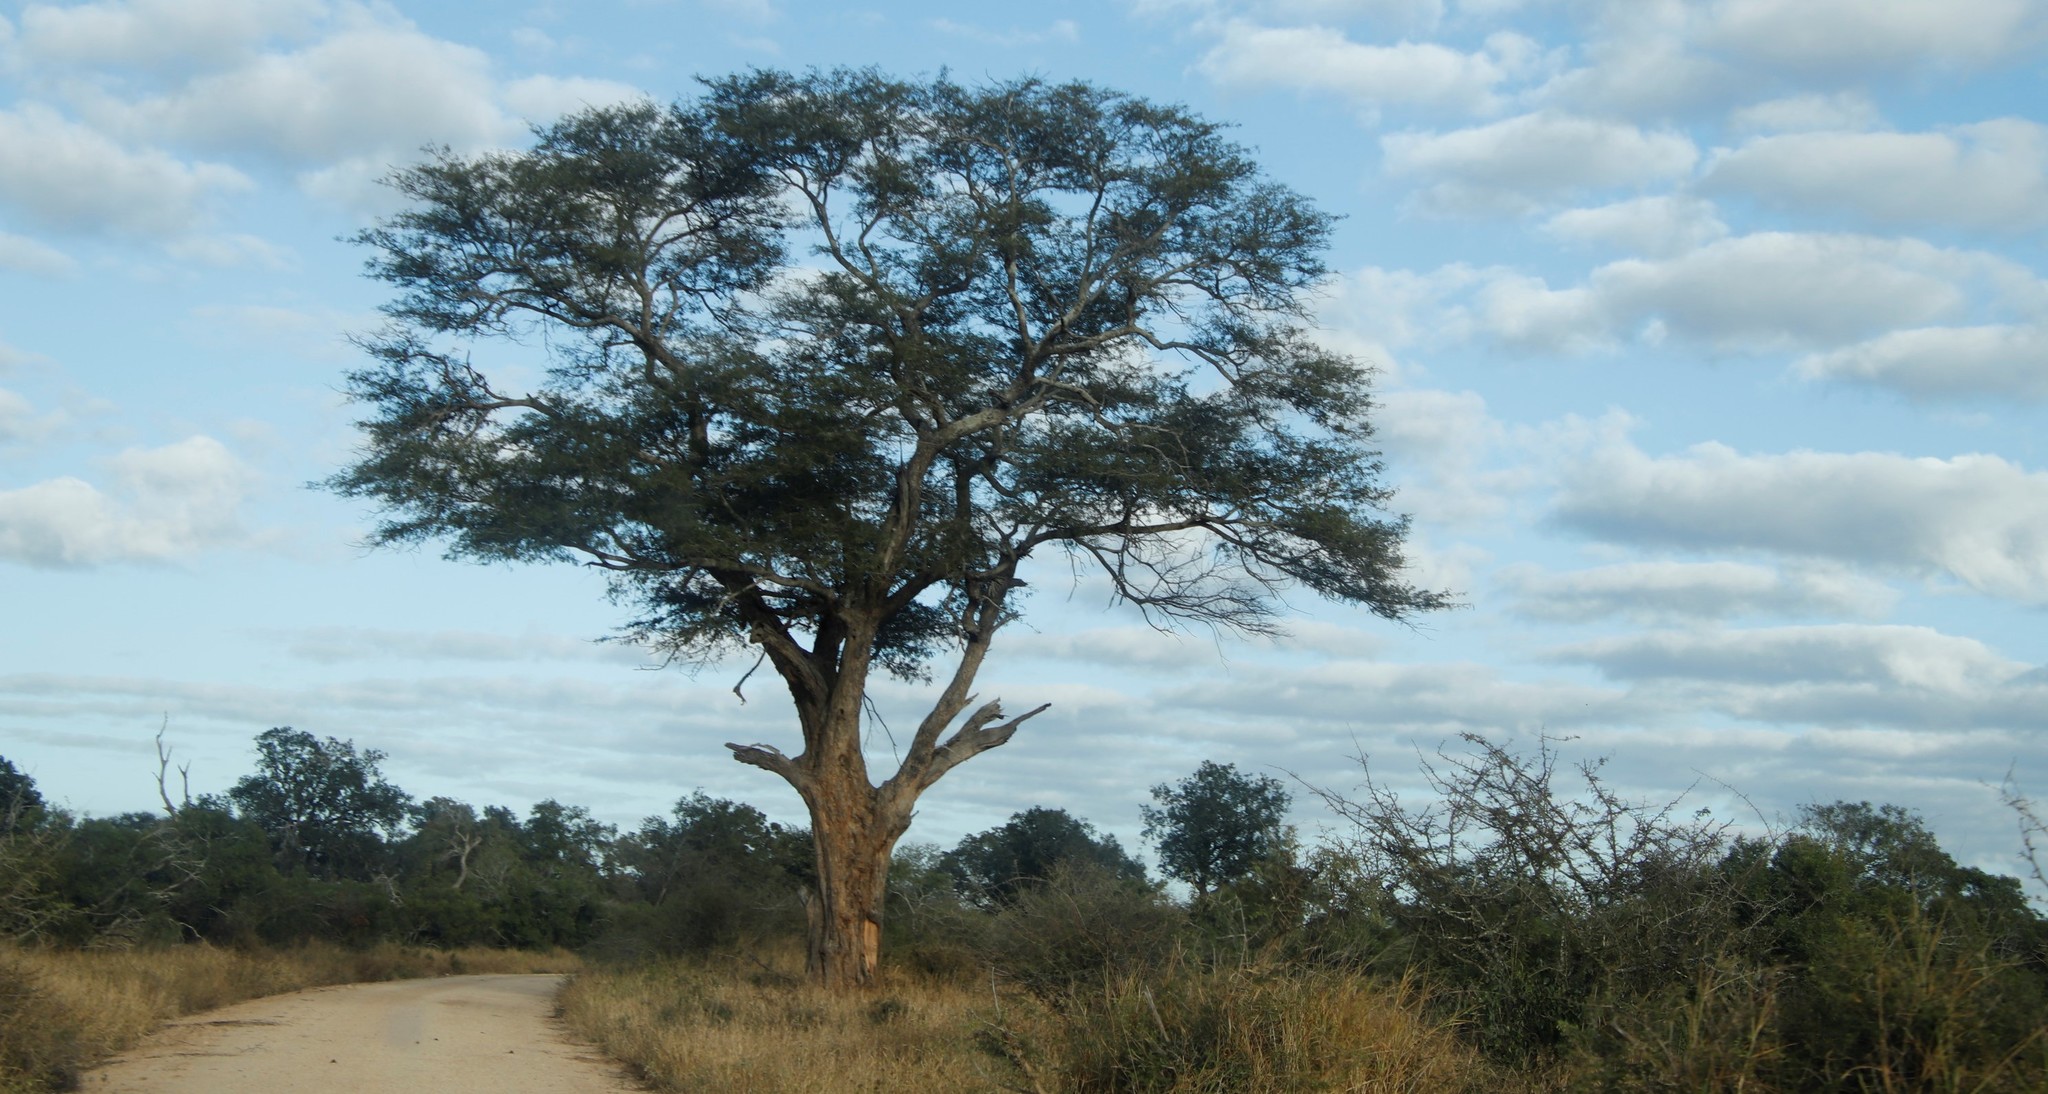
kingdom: Plantae
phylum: Tracheophyta
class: Magnoliopsida
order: Fabales
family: Fabaceae
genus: Faidherbia
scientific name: Faidherbia albida
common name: Anatree
